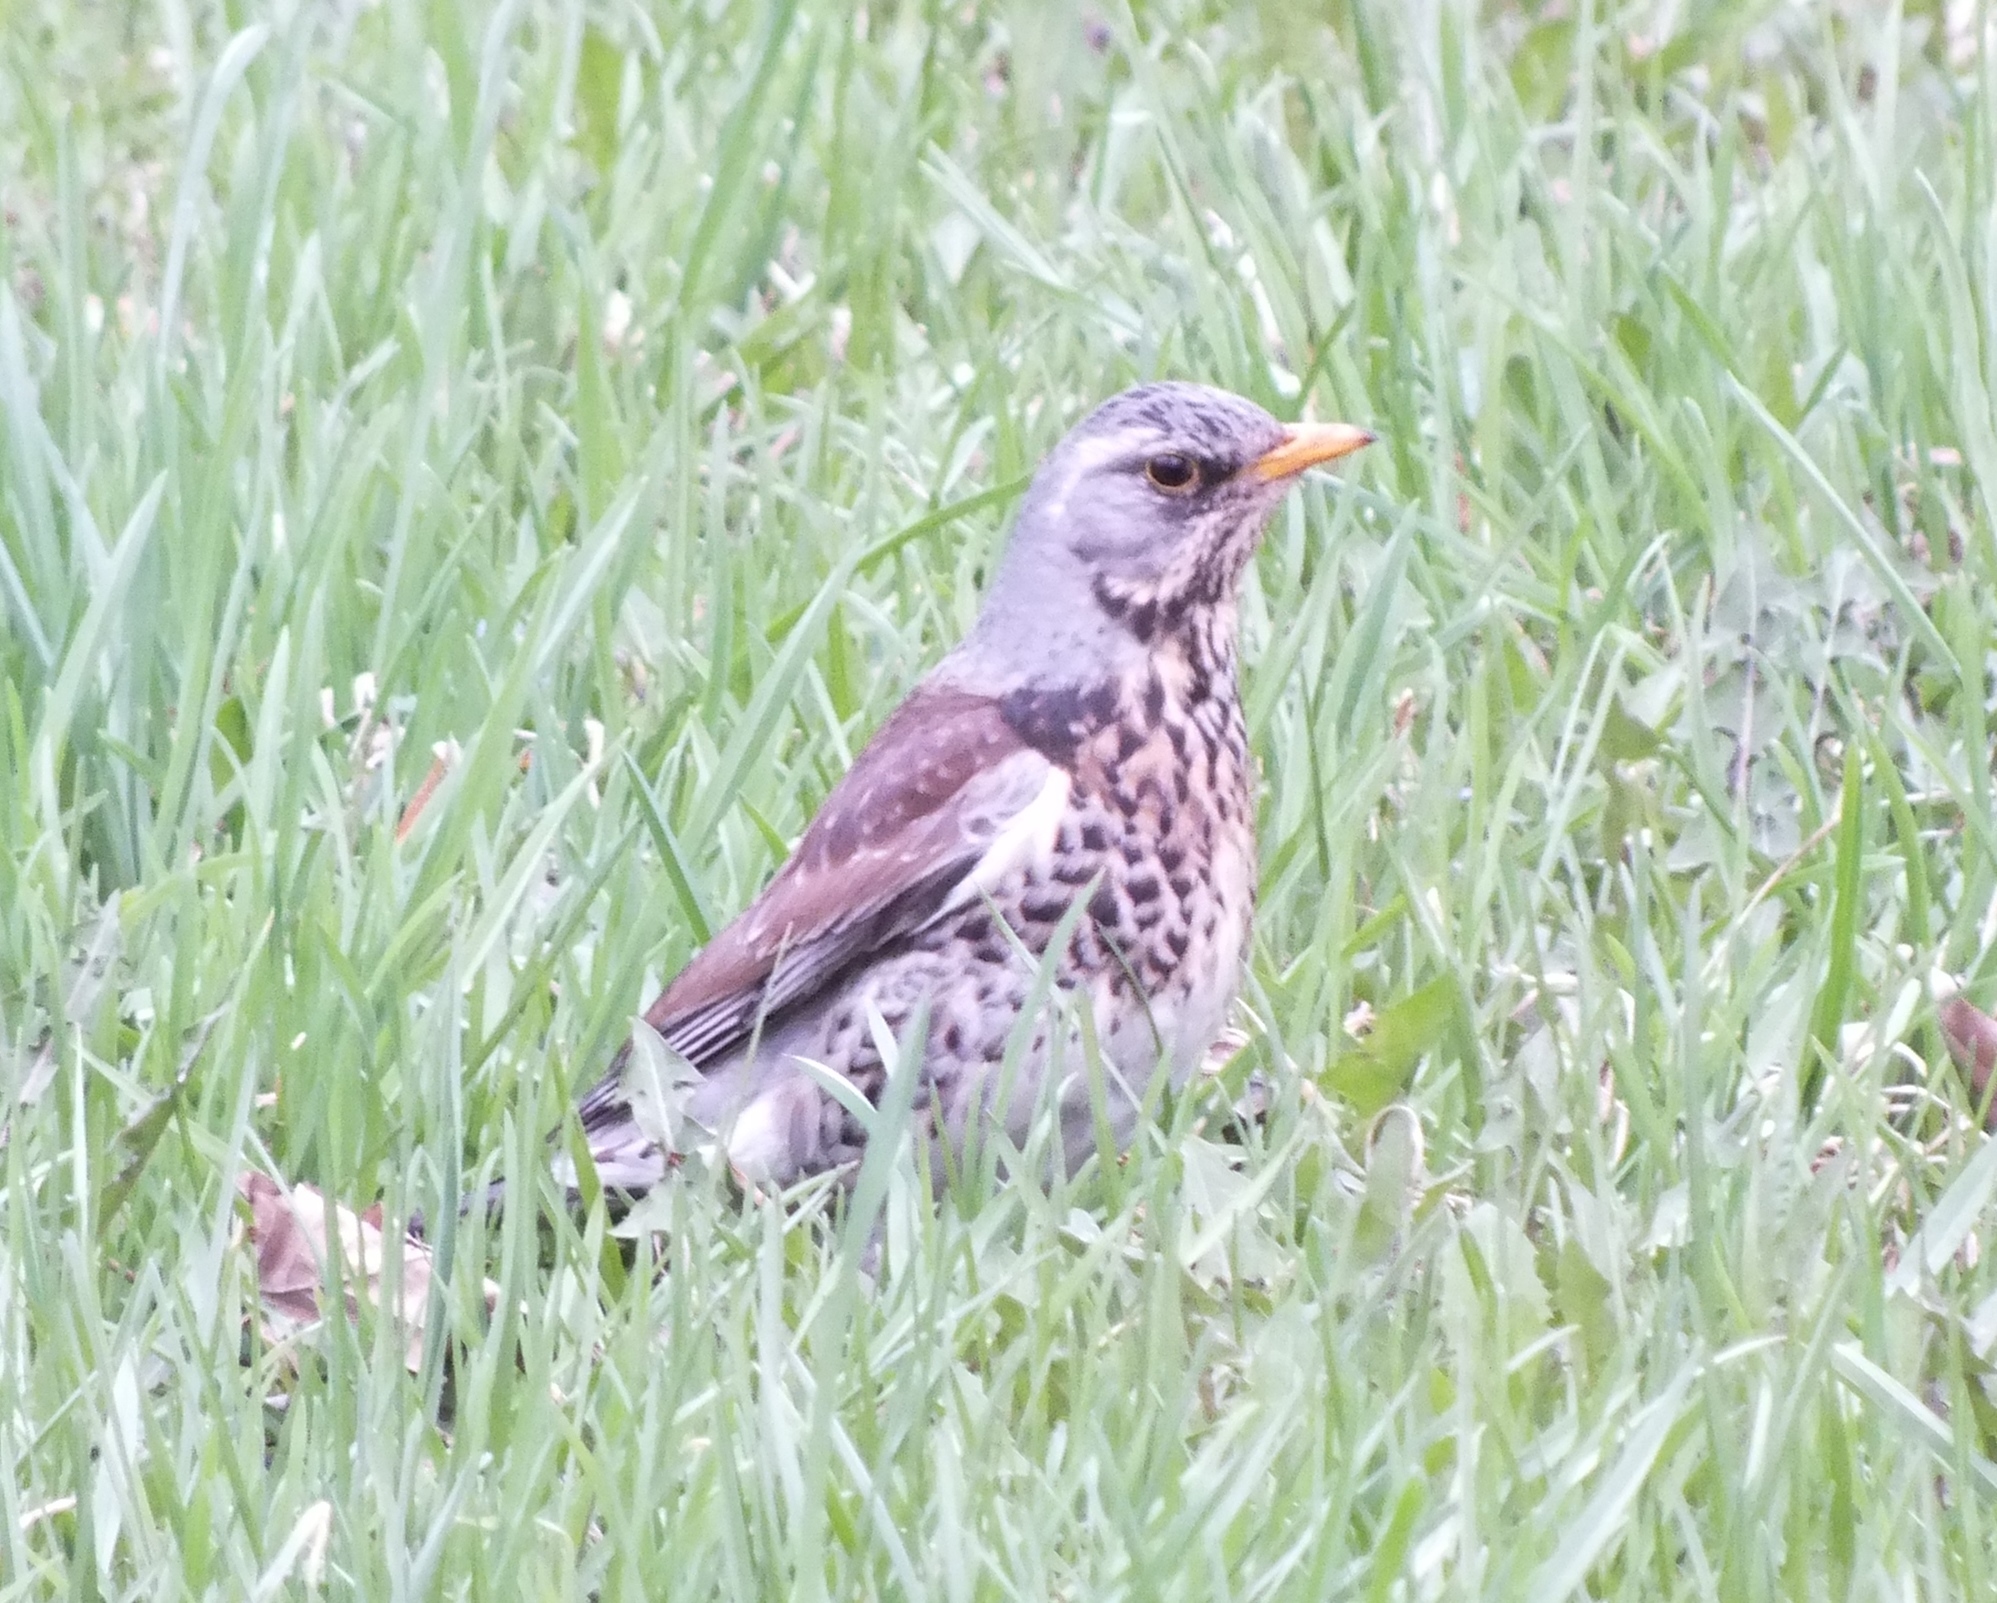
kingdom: Animalia
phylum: Chordata
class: Aves
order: Passeriformes
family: Turdidae
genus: Turdus
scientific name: Turdus pilaris
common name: Fieldfare
